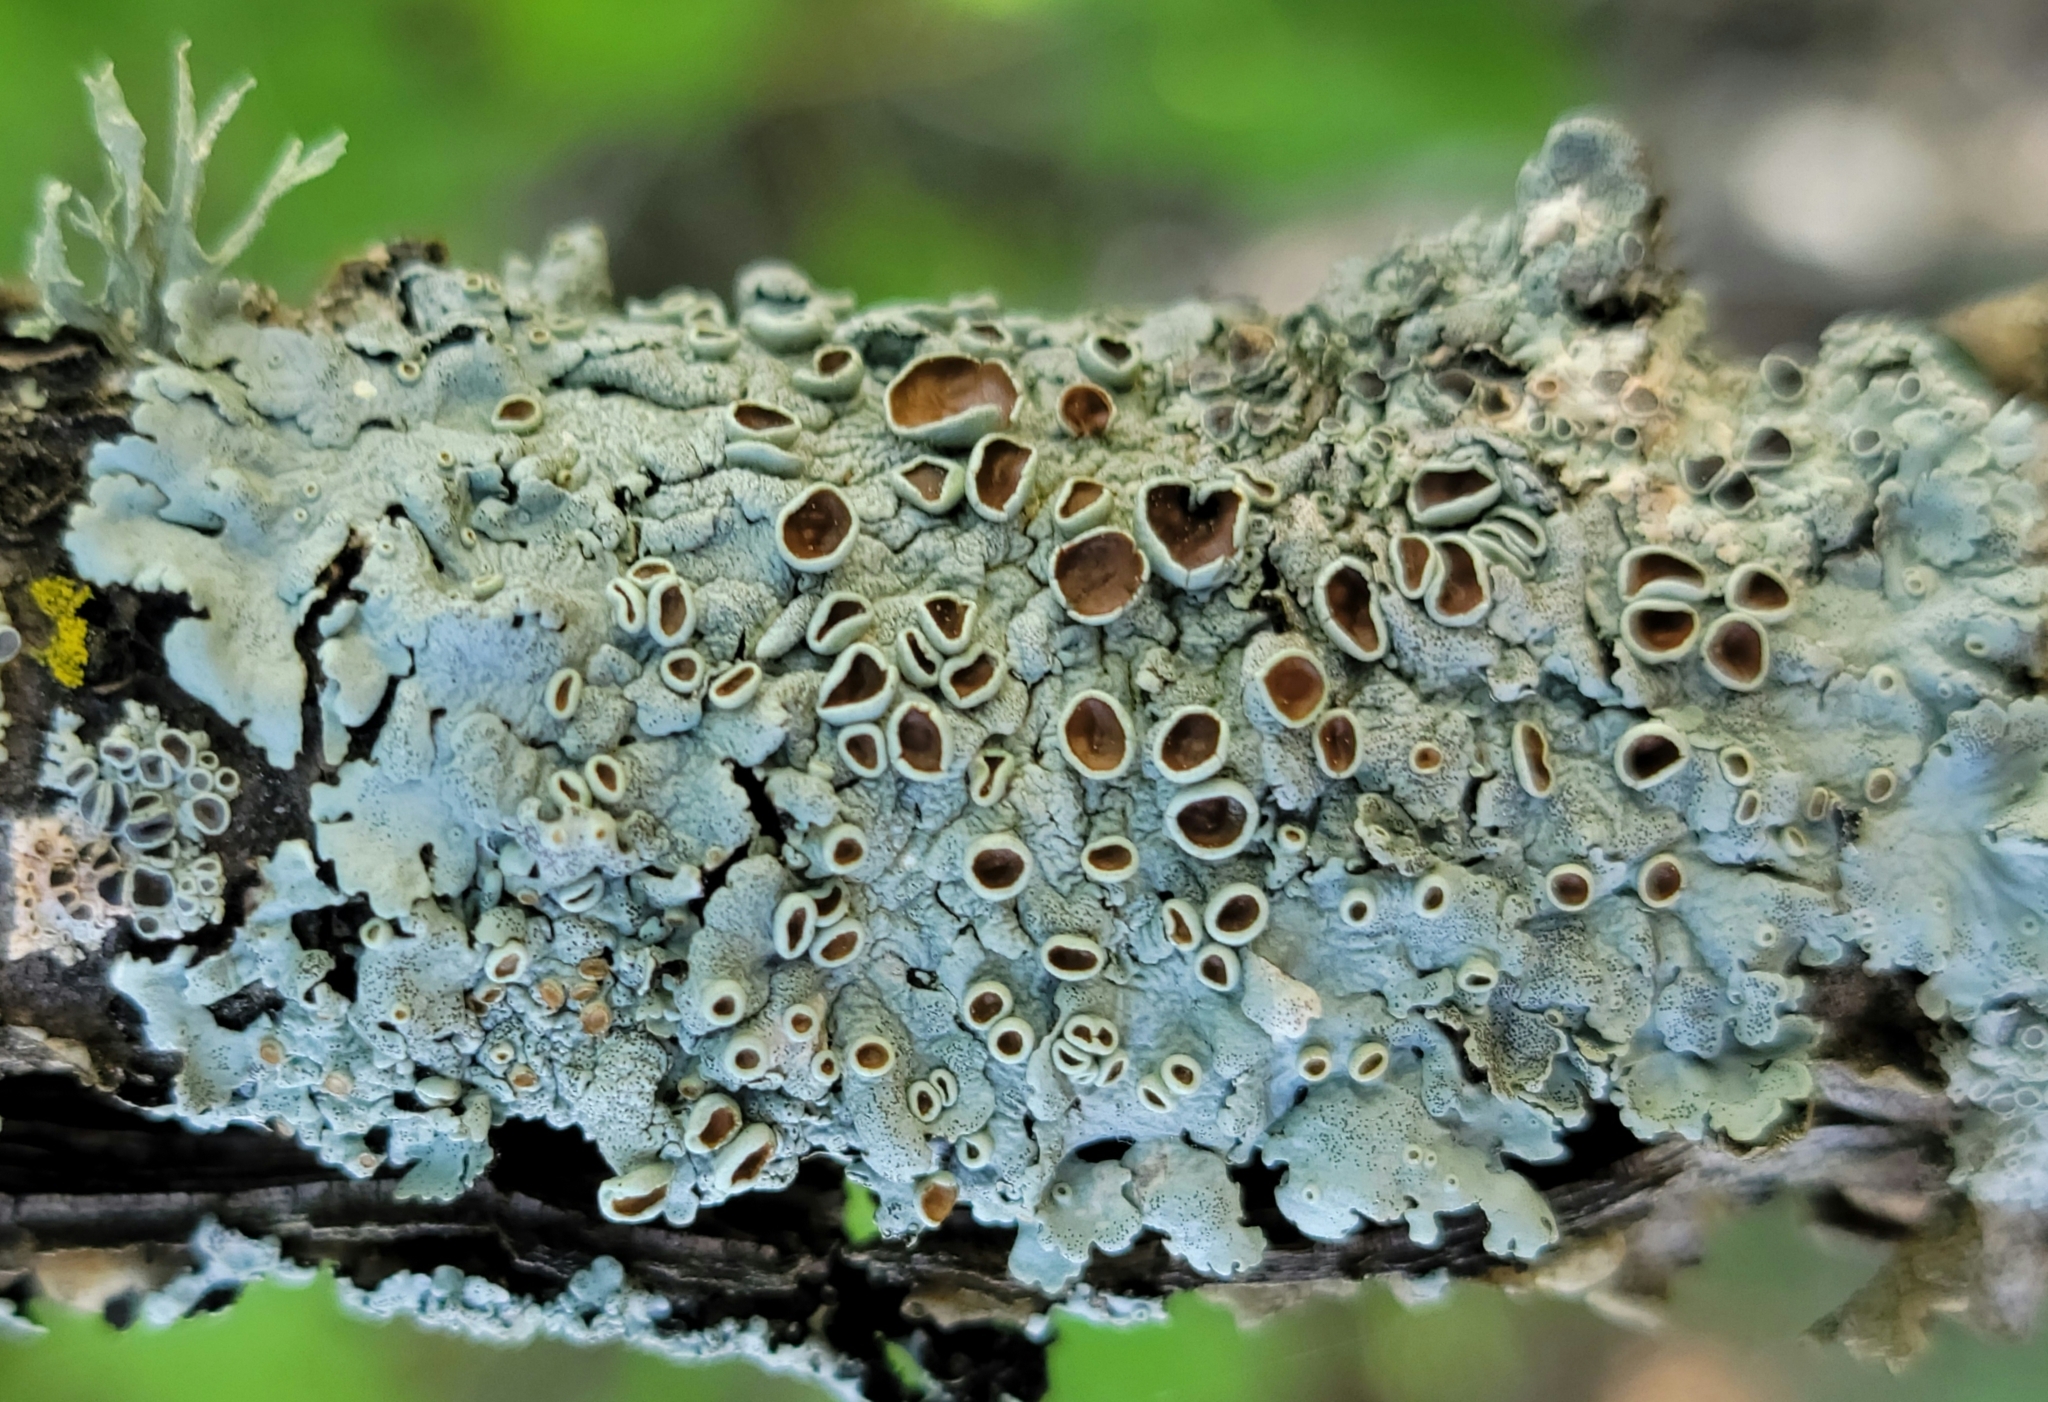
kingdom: Fungi
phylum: Ascomycota
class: Lecanoromycetes
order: Lecanorales
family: Parmeliaceae
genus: Myelochroa
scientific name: Myelochroa galbina
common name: Smooth axil-bristle lichen
